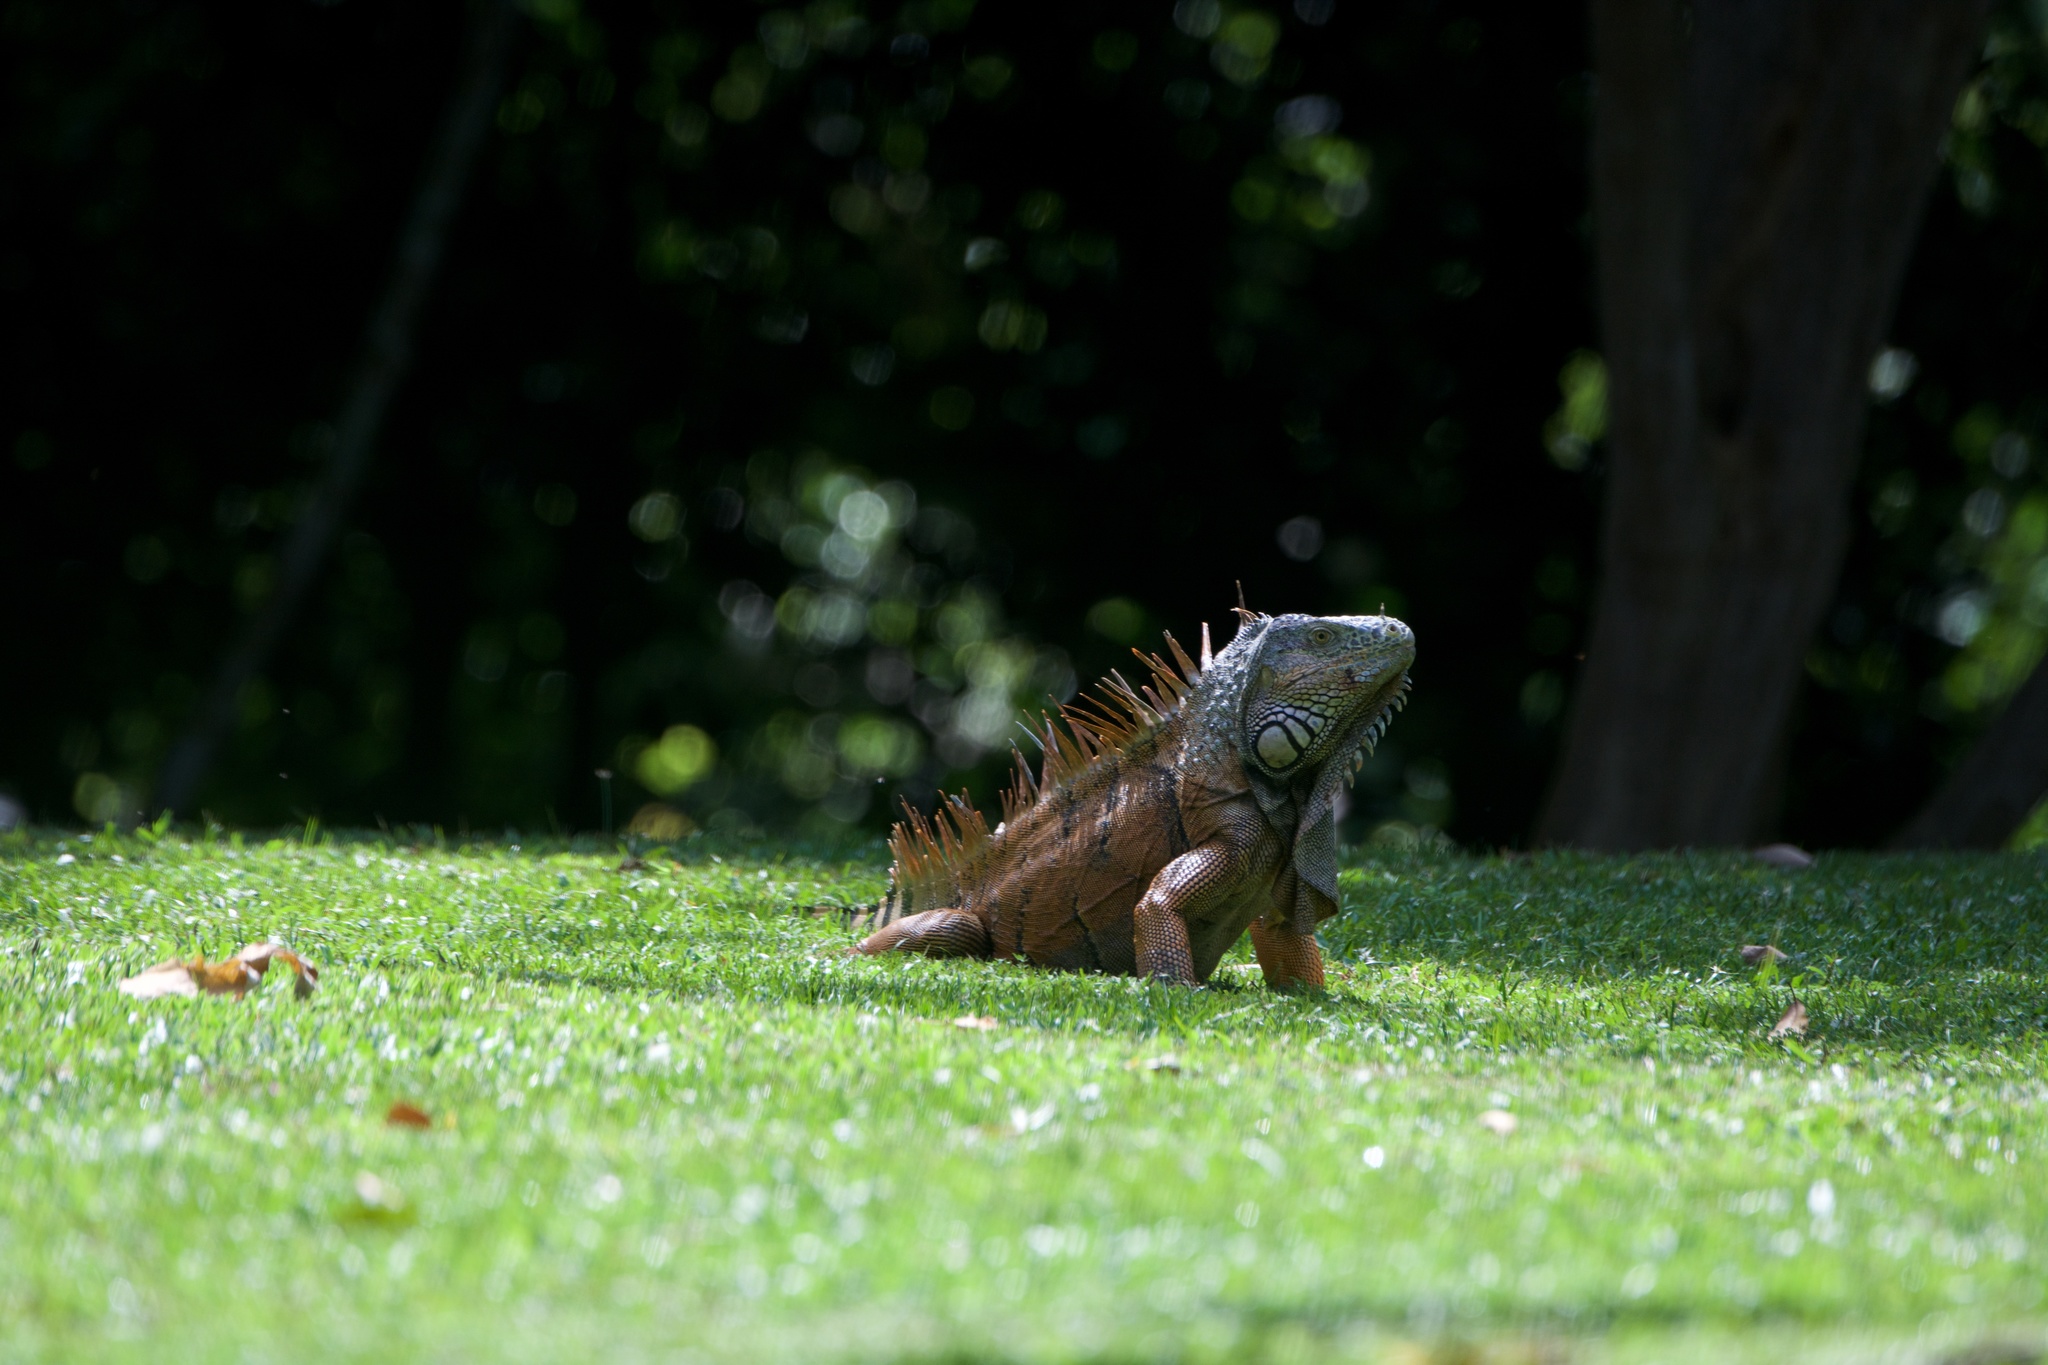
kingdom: Animalia
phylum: Chordata
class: Squamata
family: Iguanidae
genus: Iguana
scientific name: Iguana iguana
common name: Green iguana
